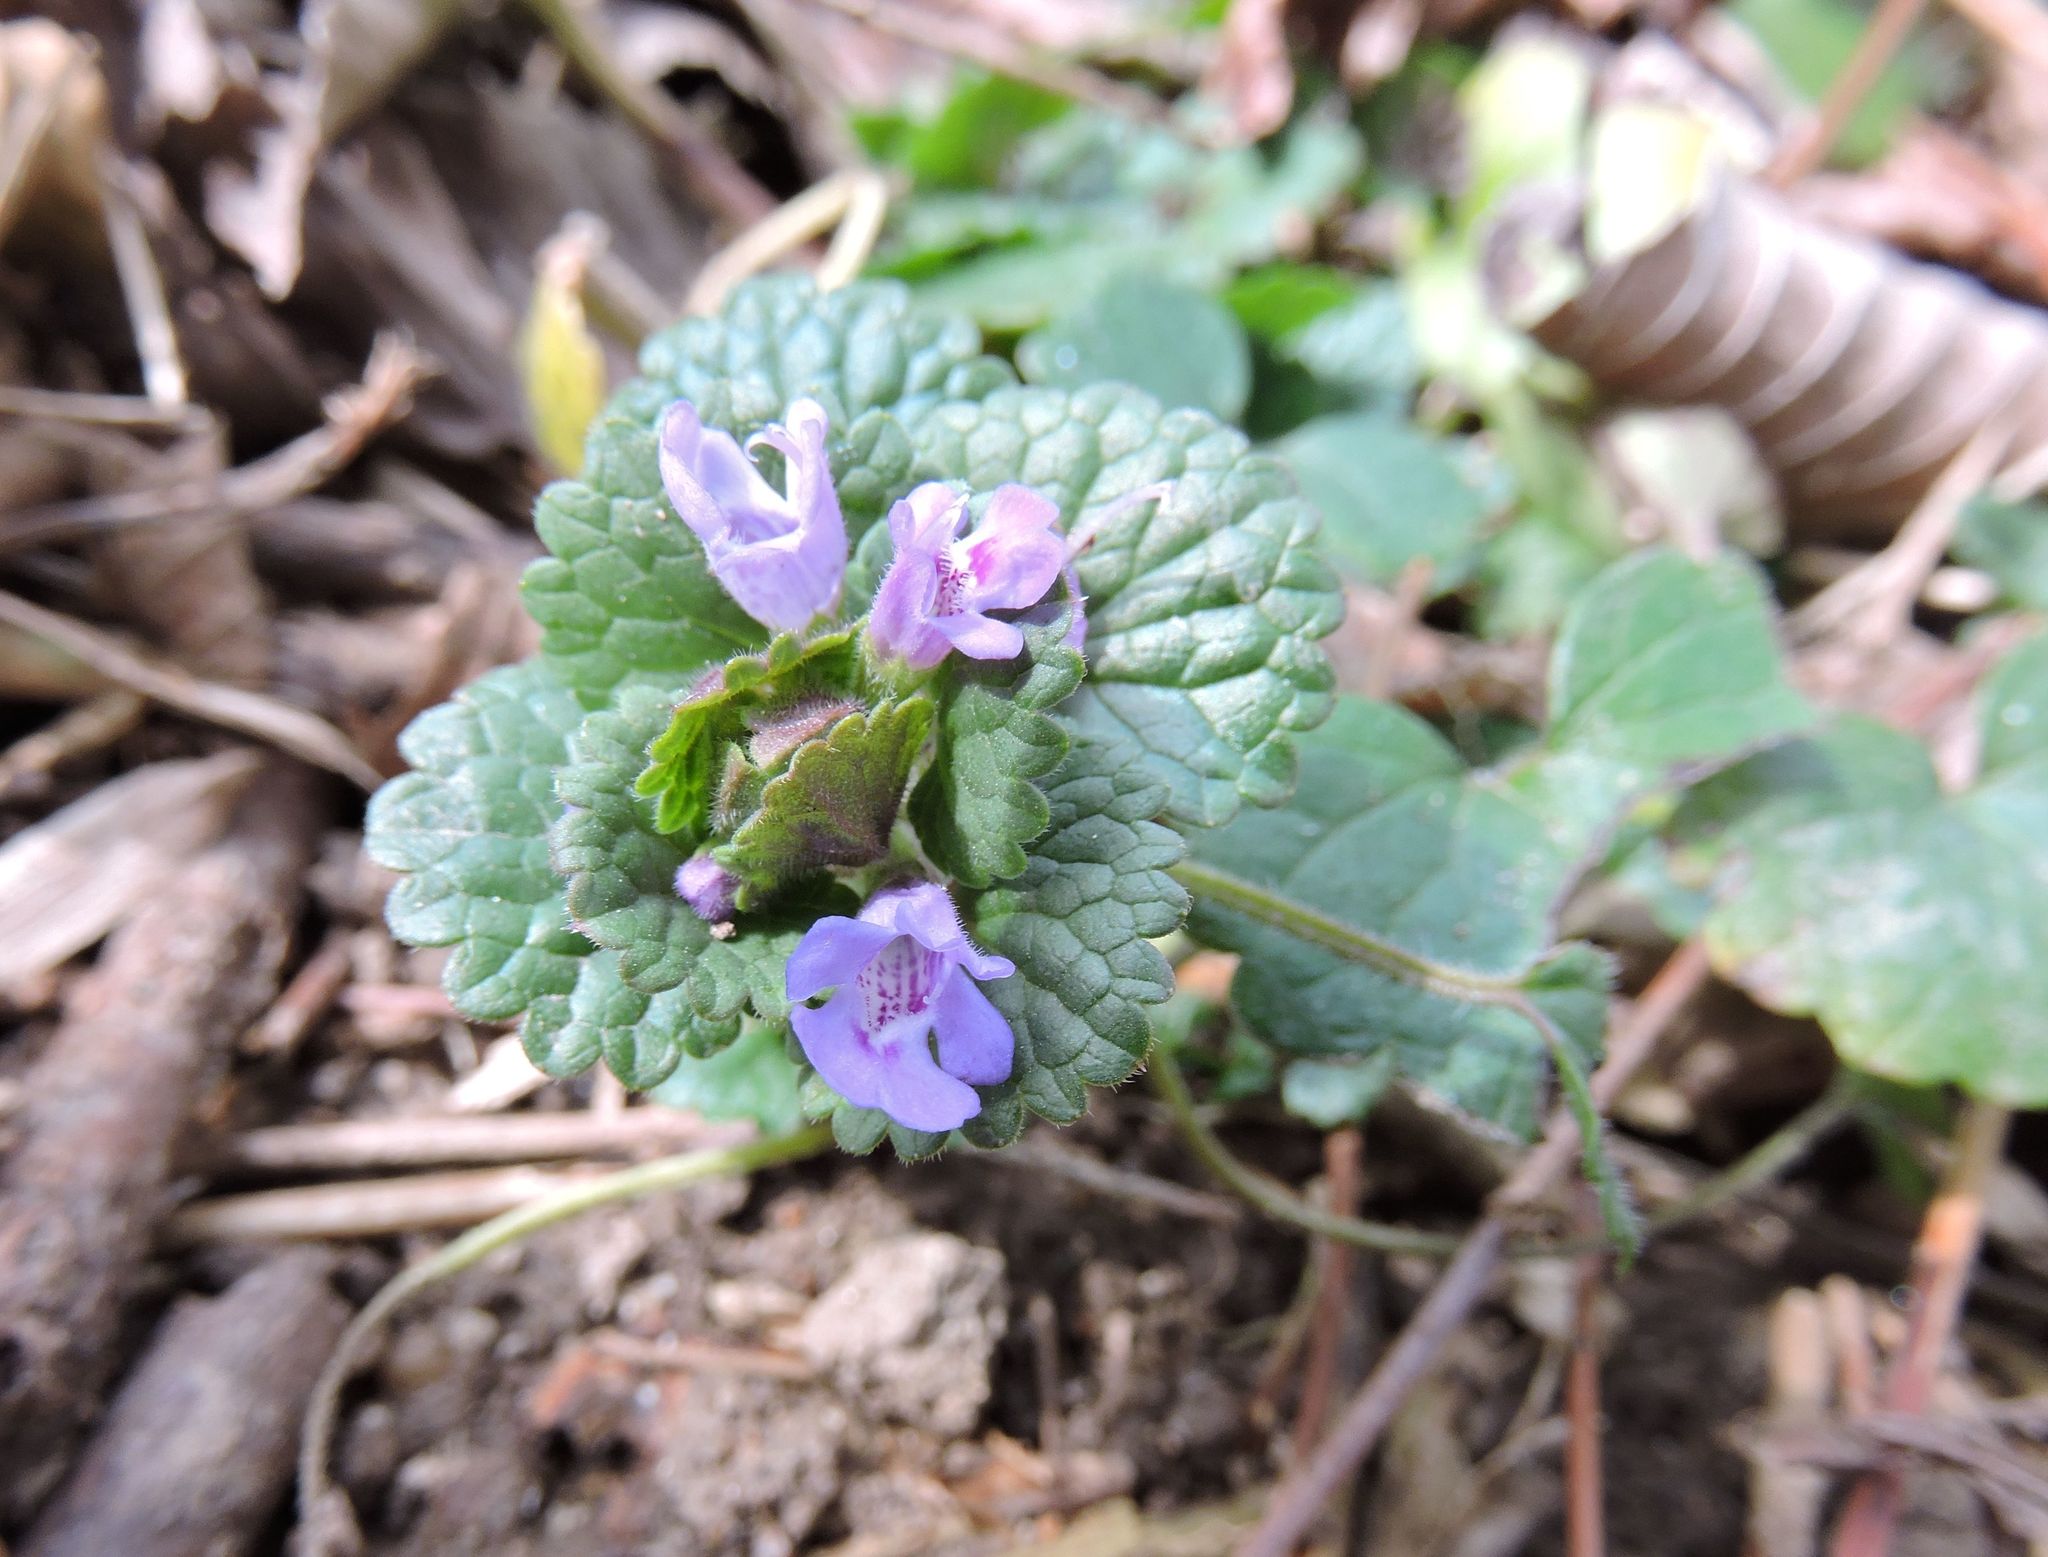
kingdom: Plantae
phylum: Tracheophyta
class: Magnoliopsida
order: Lamiales
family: Lamiaceae
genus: Glechoma
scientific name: Glechoma hederacea
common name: Ground ivy
